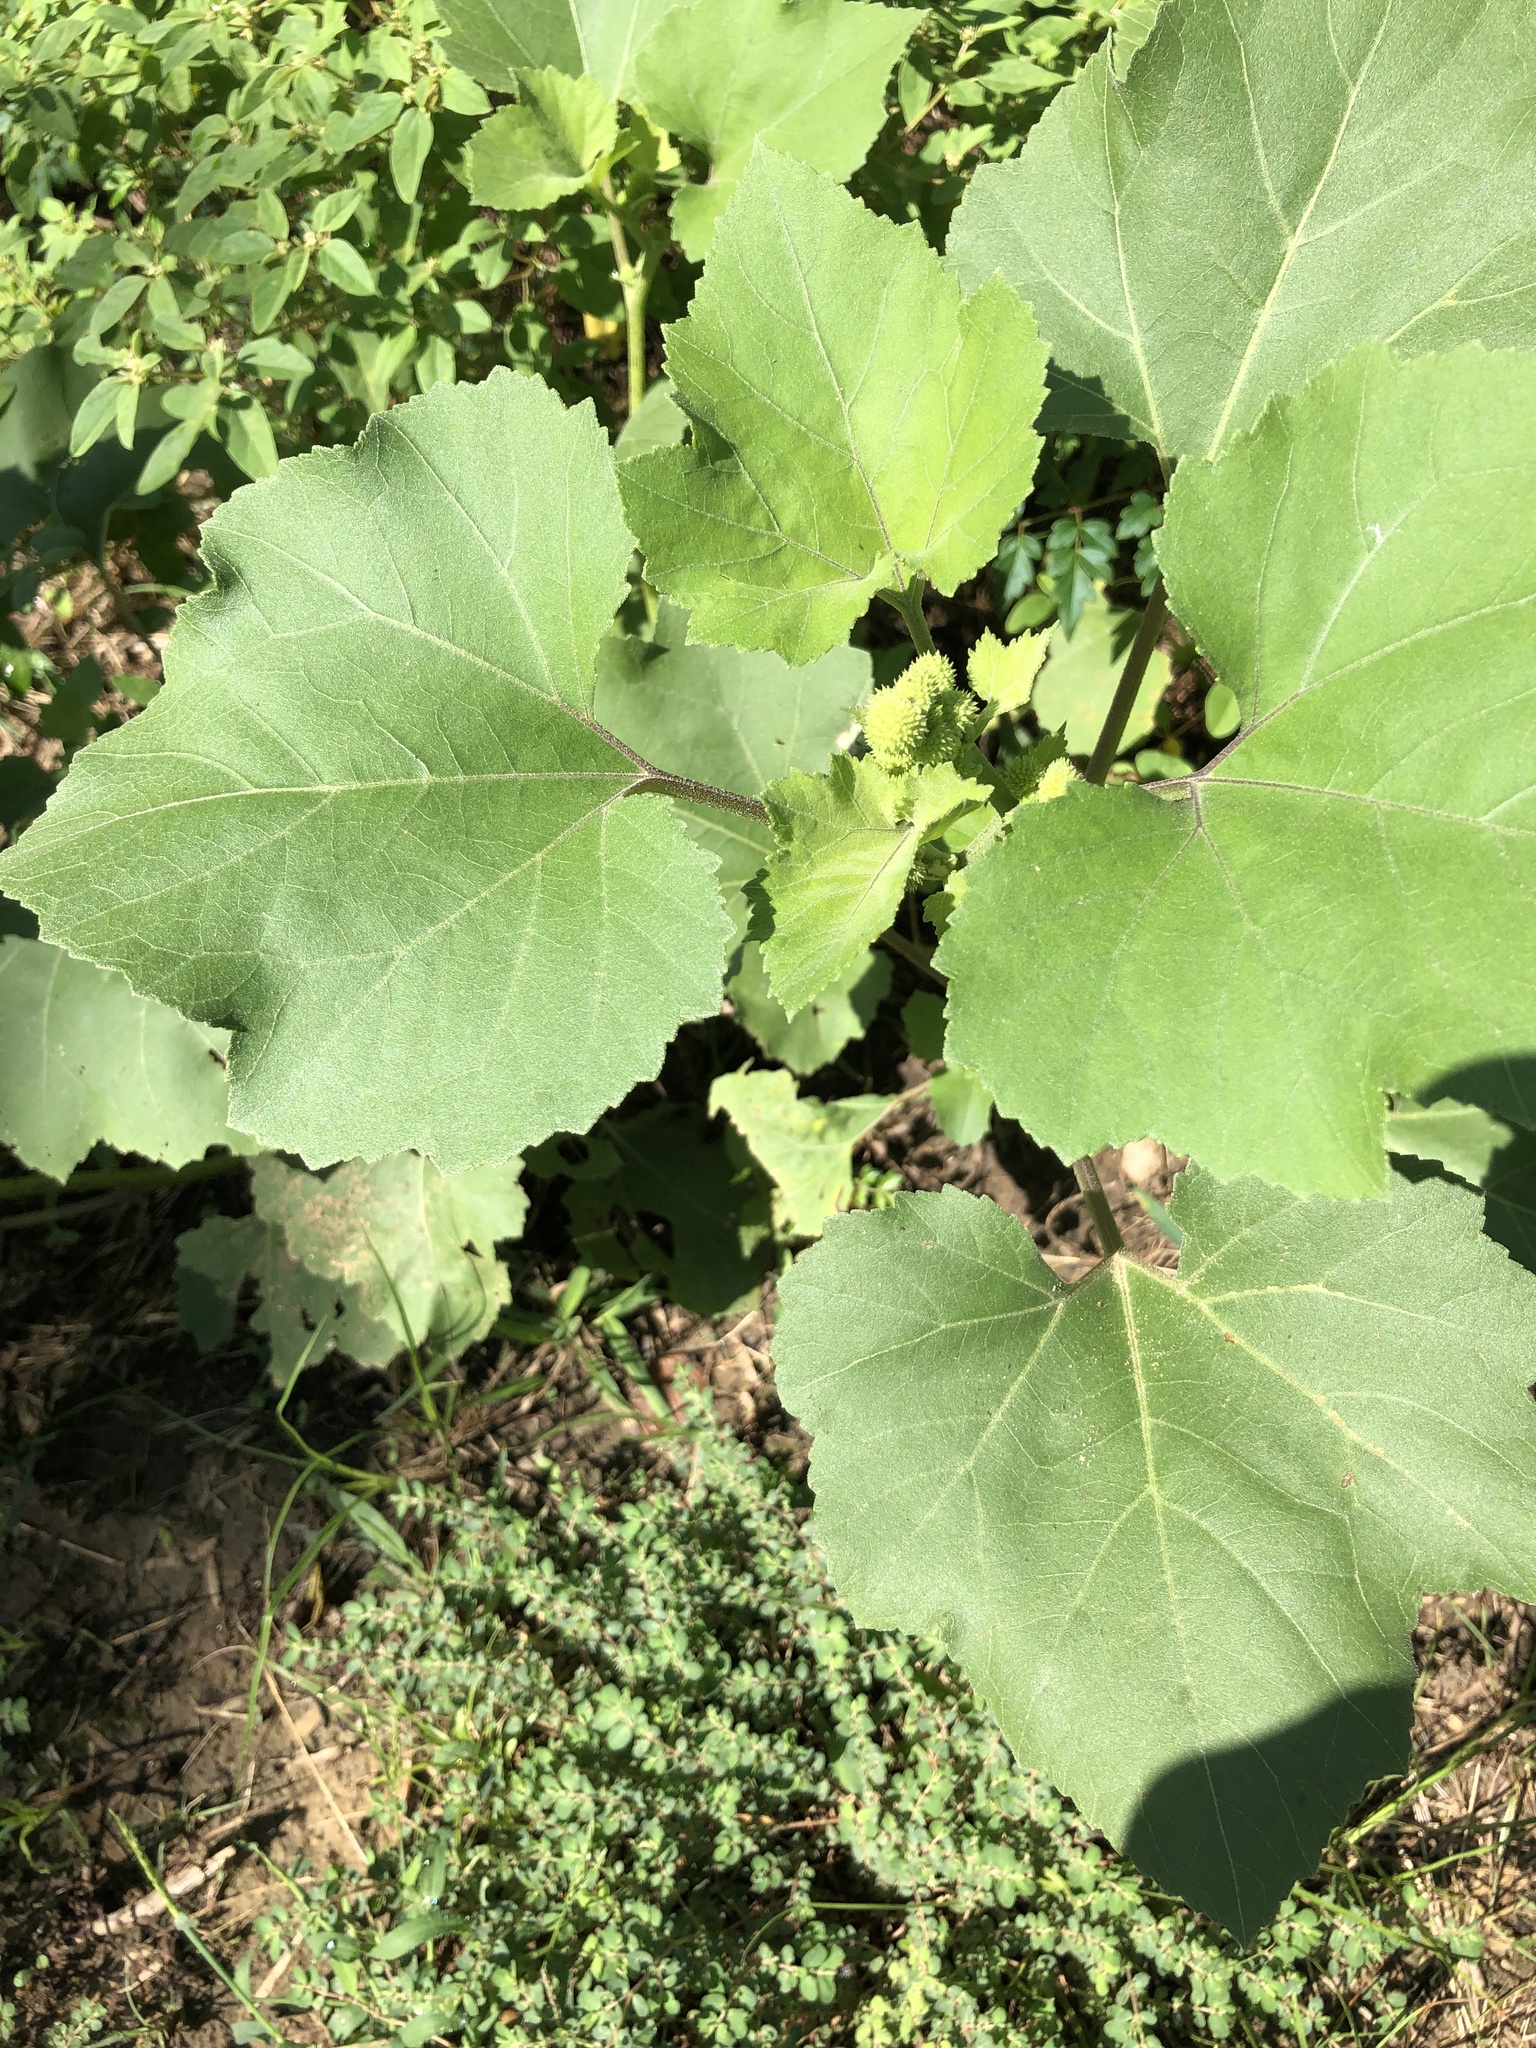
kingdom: Plantae
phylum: Tracheophyta
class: Magnoliopsida
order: Asterales
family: Asteraceae
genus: Xanthium
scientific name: Xanthium strumarium
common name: Rough cocklebur
